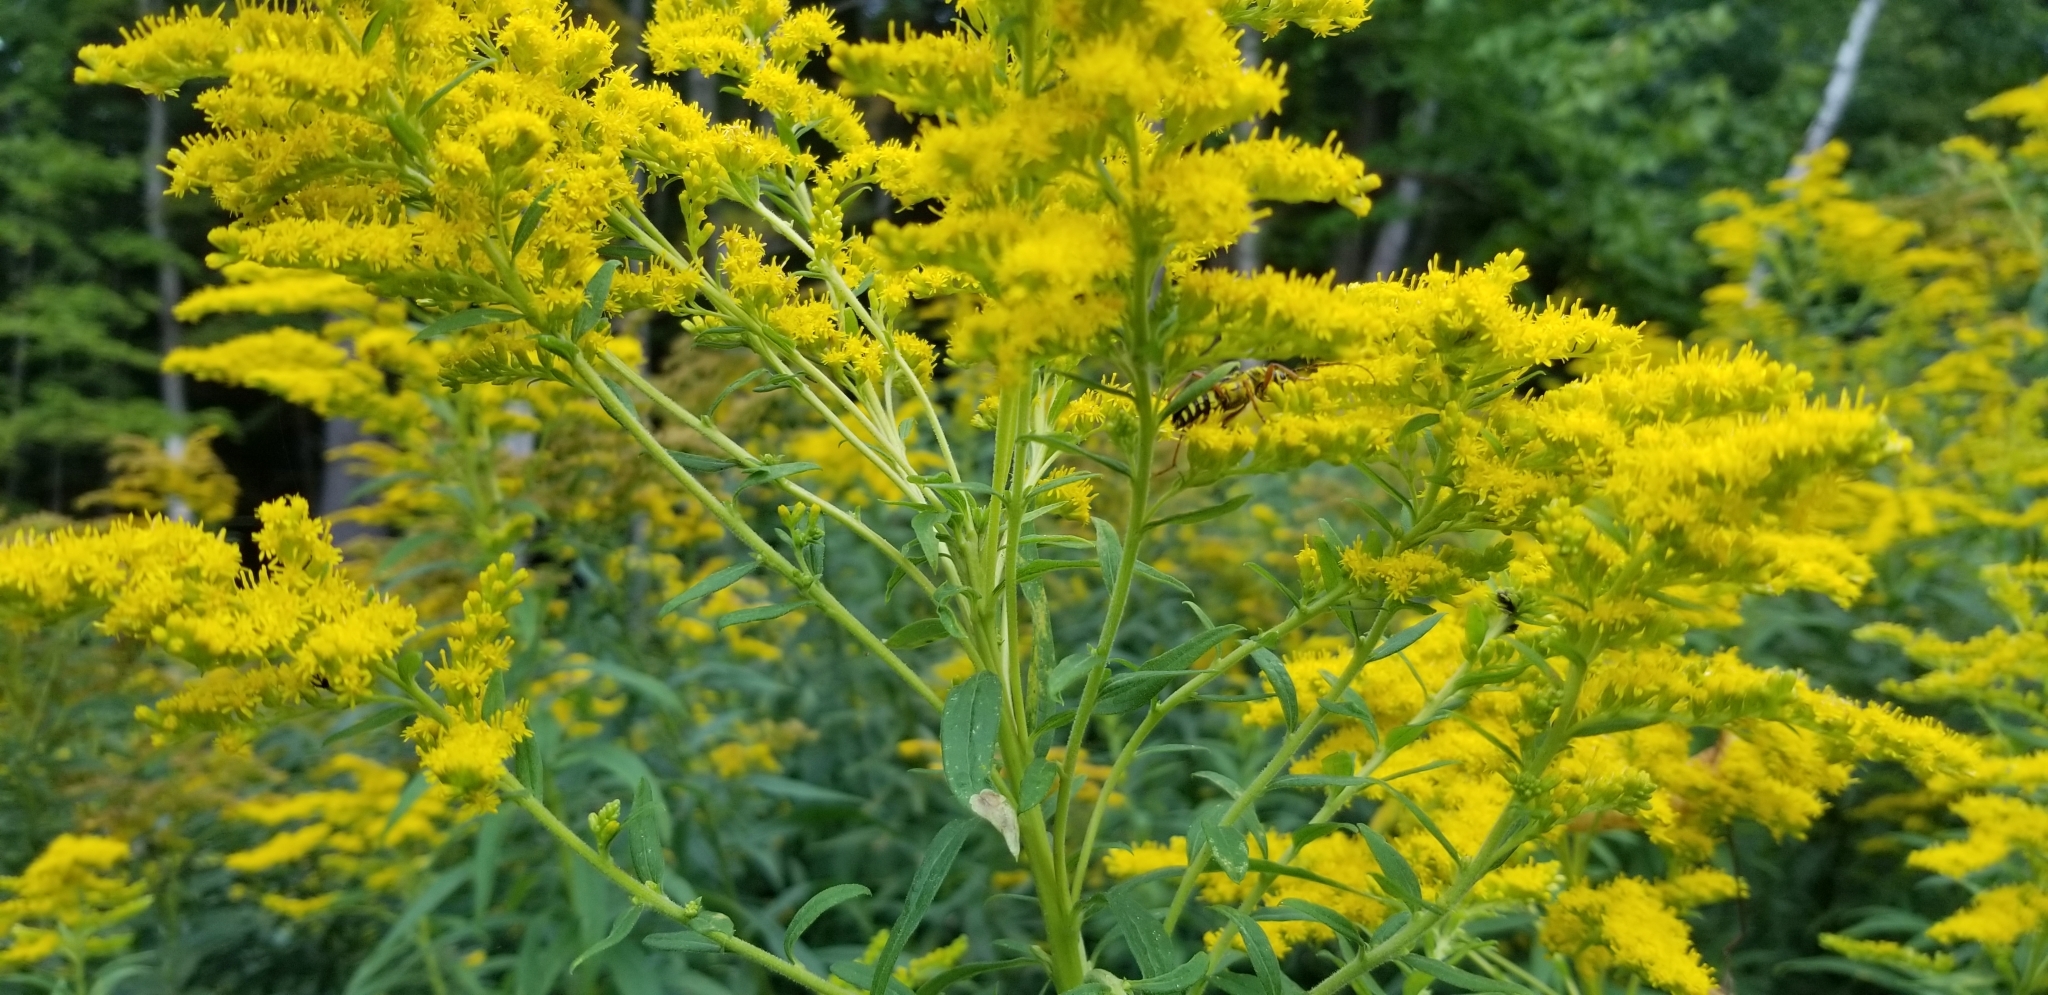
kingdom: Animalia
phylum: Arthropoda
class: Insecta
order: Coleoptera
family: Cerambycidae
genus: Megacyllene
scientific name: Megacyllene robiniae
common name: Locust borer
